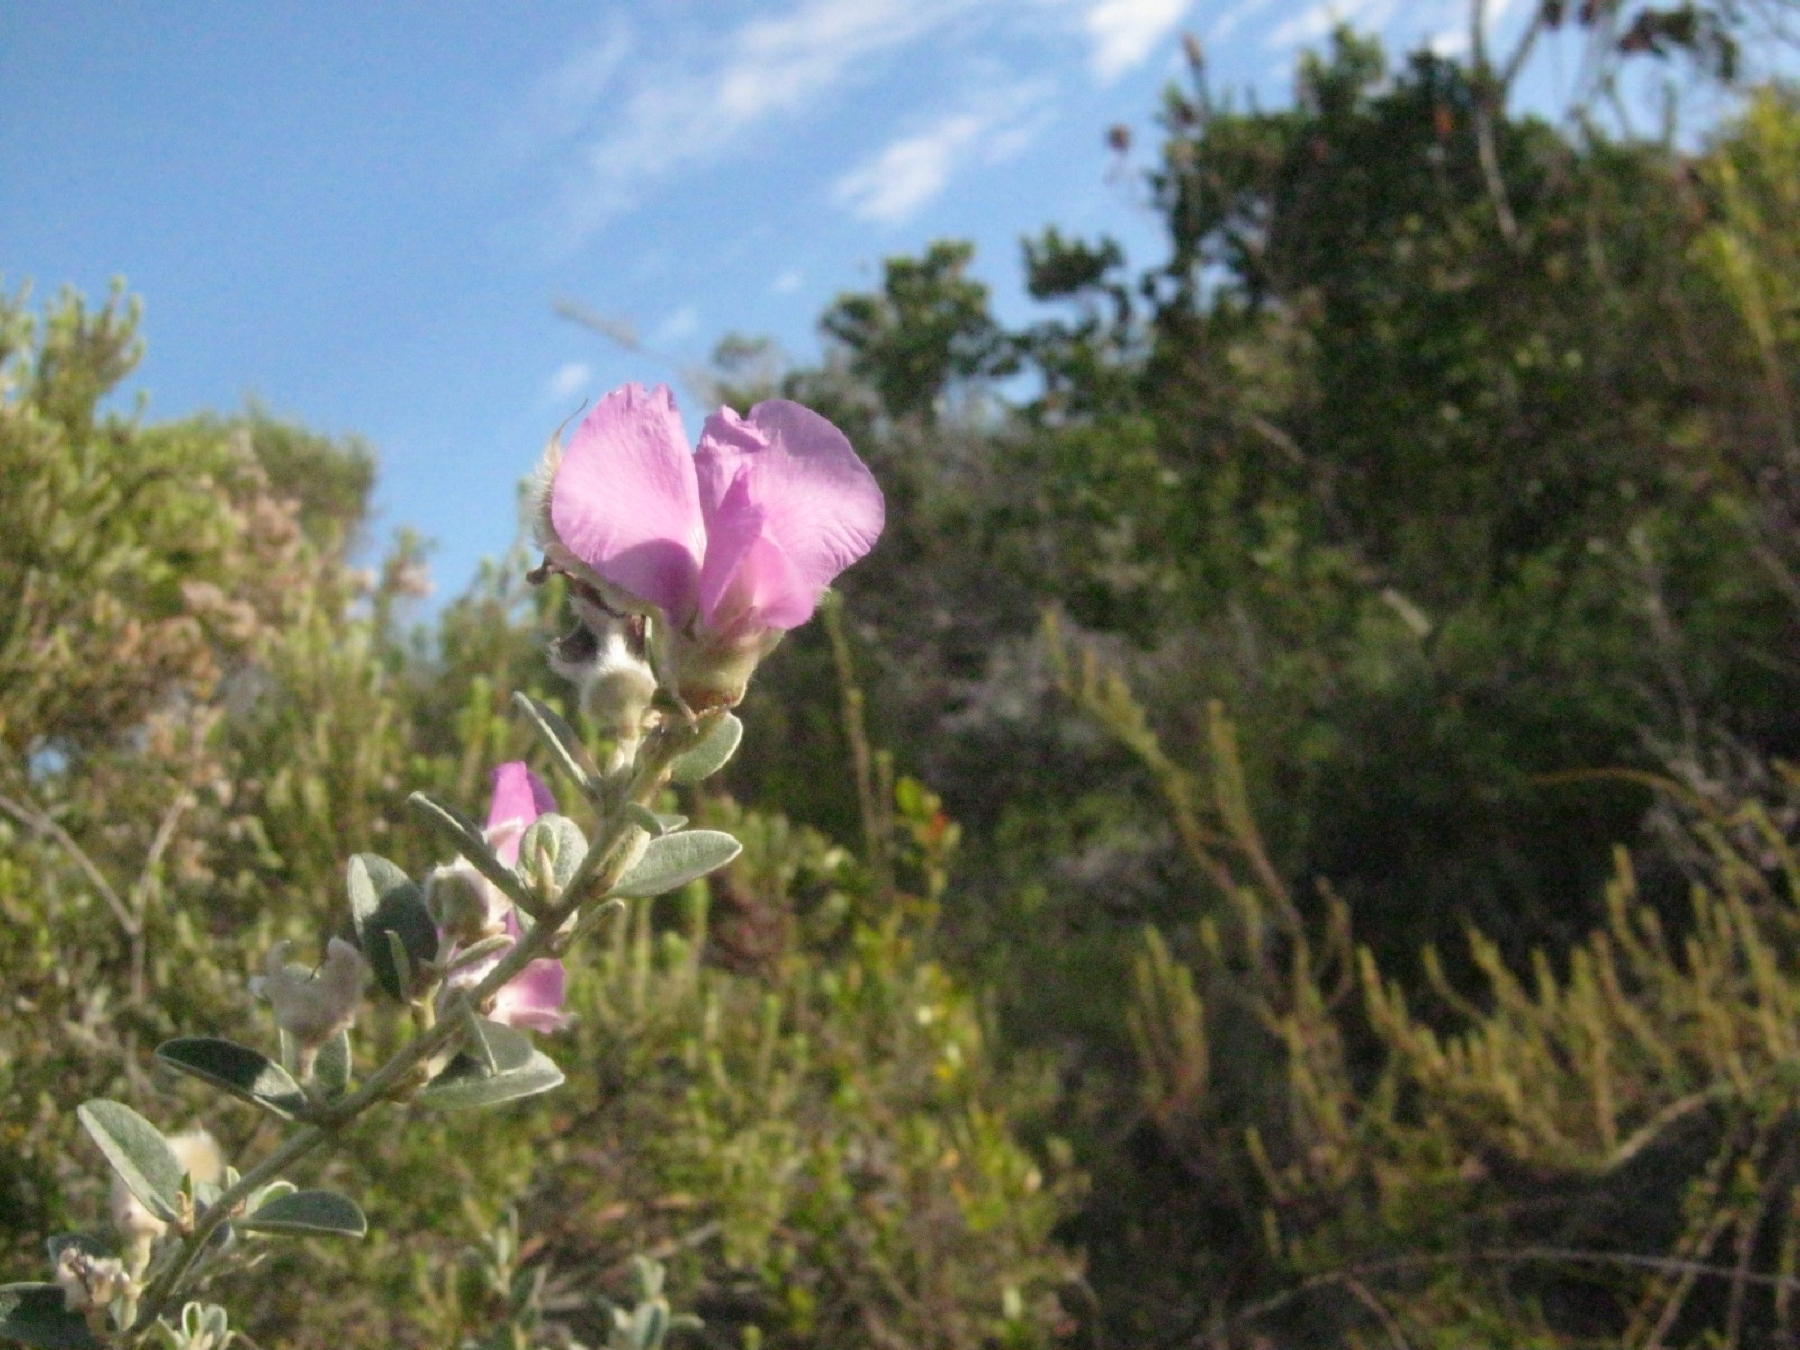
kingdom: Plantae
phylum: Tracheophyta
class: Magnoliopsida
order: Fabales
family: Fabaceae
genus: Podalyria
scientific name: Podalyria burchellii
